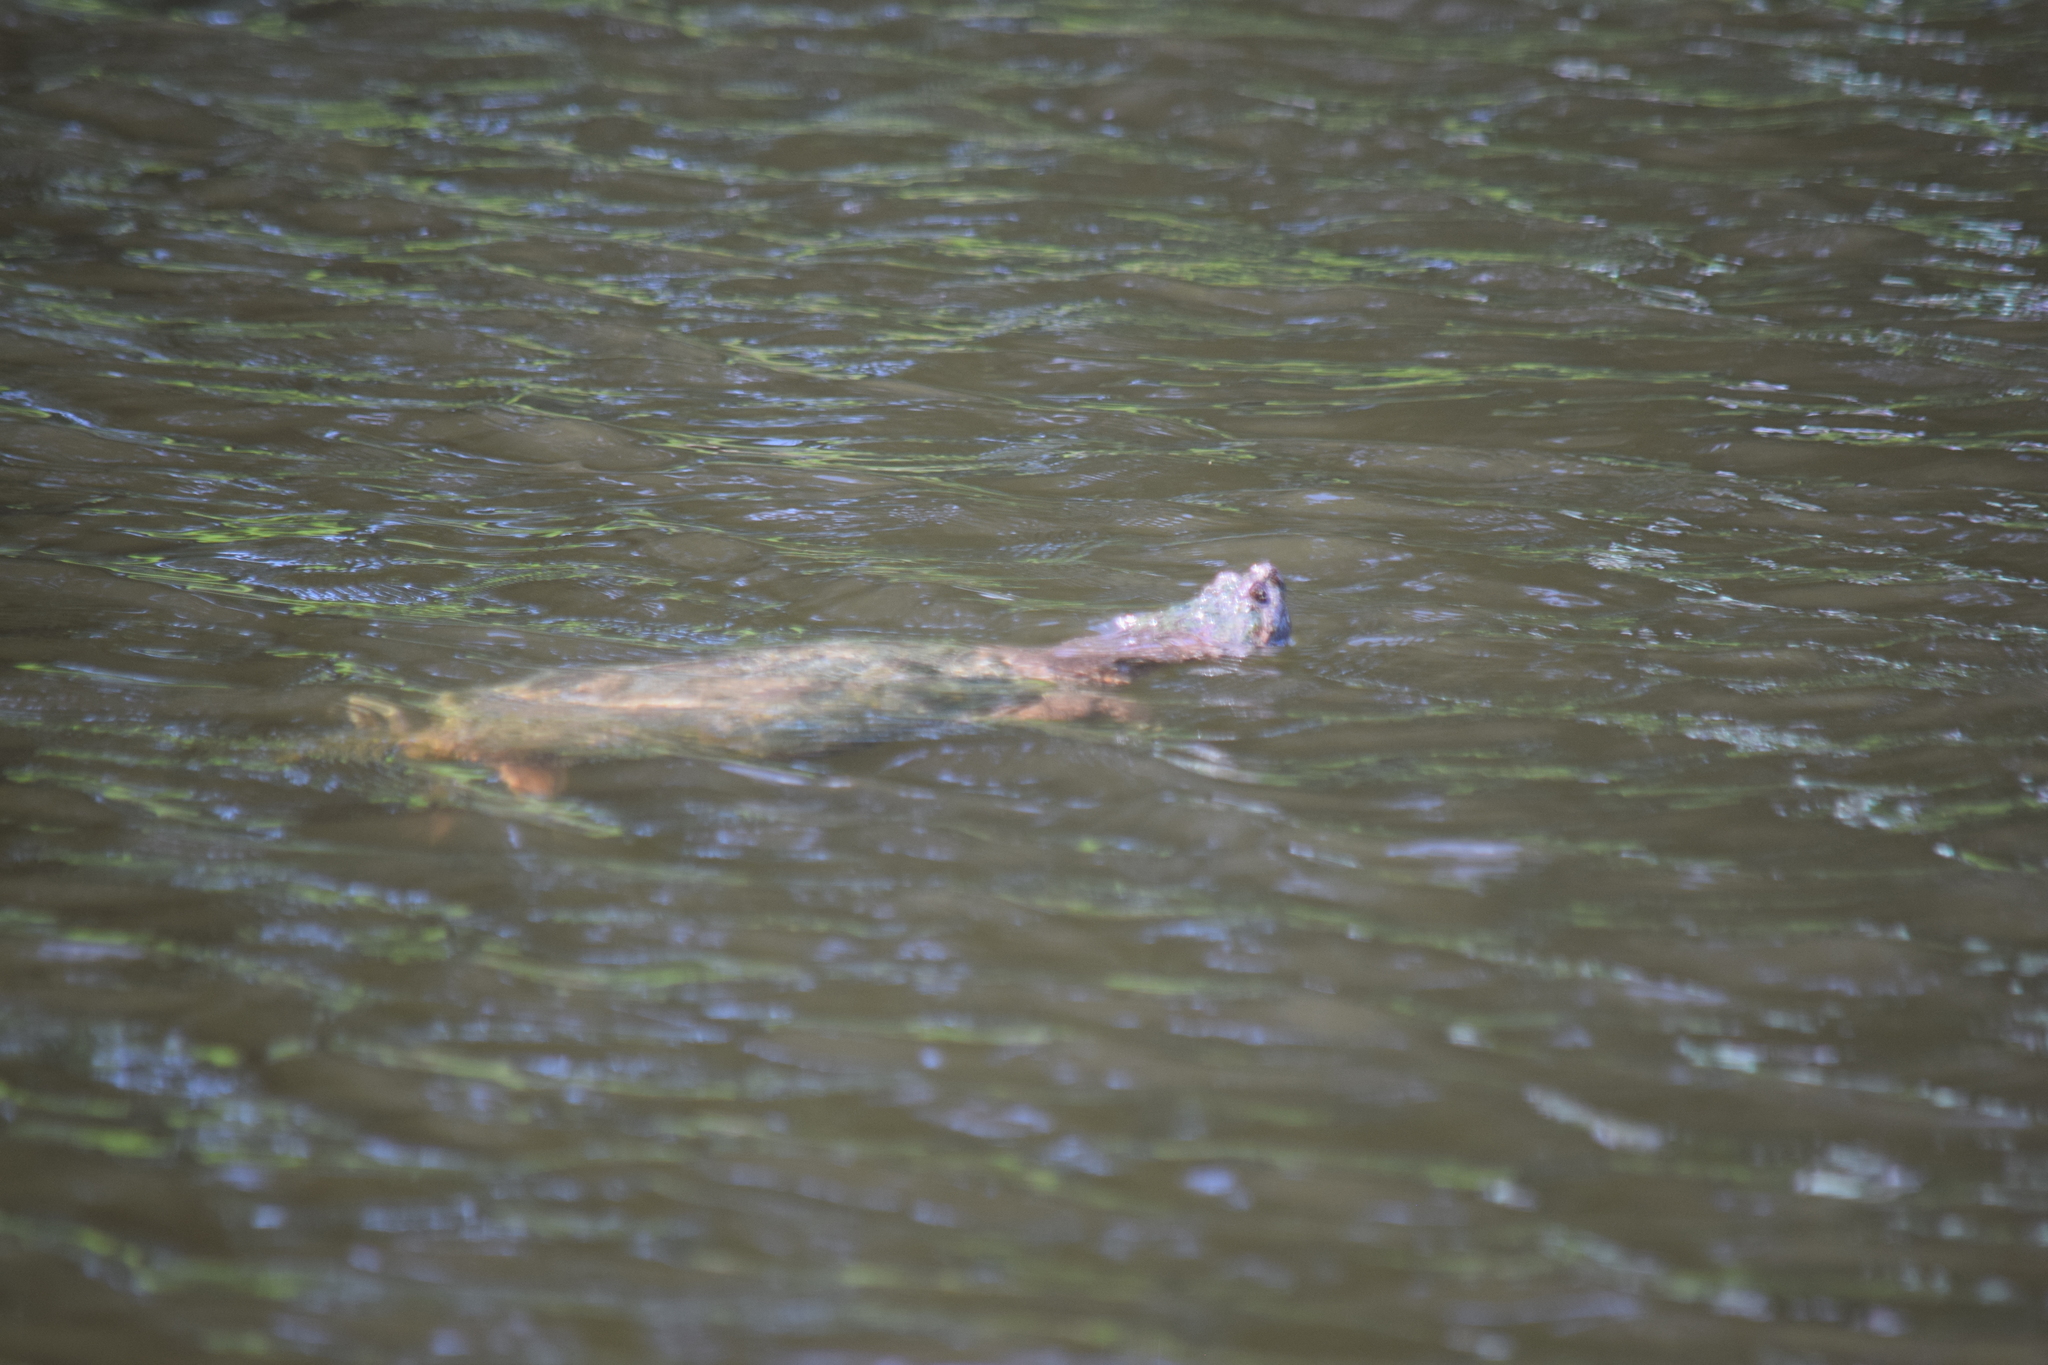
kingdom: Animalia
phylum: Chordata
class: Testudines
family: Chelydridae
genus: Chelydra
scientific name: Chelydra serpentina
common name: Common snapping turtle
